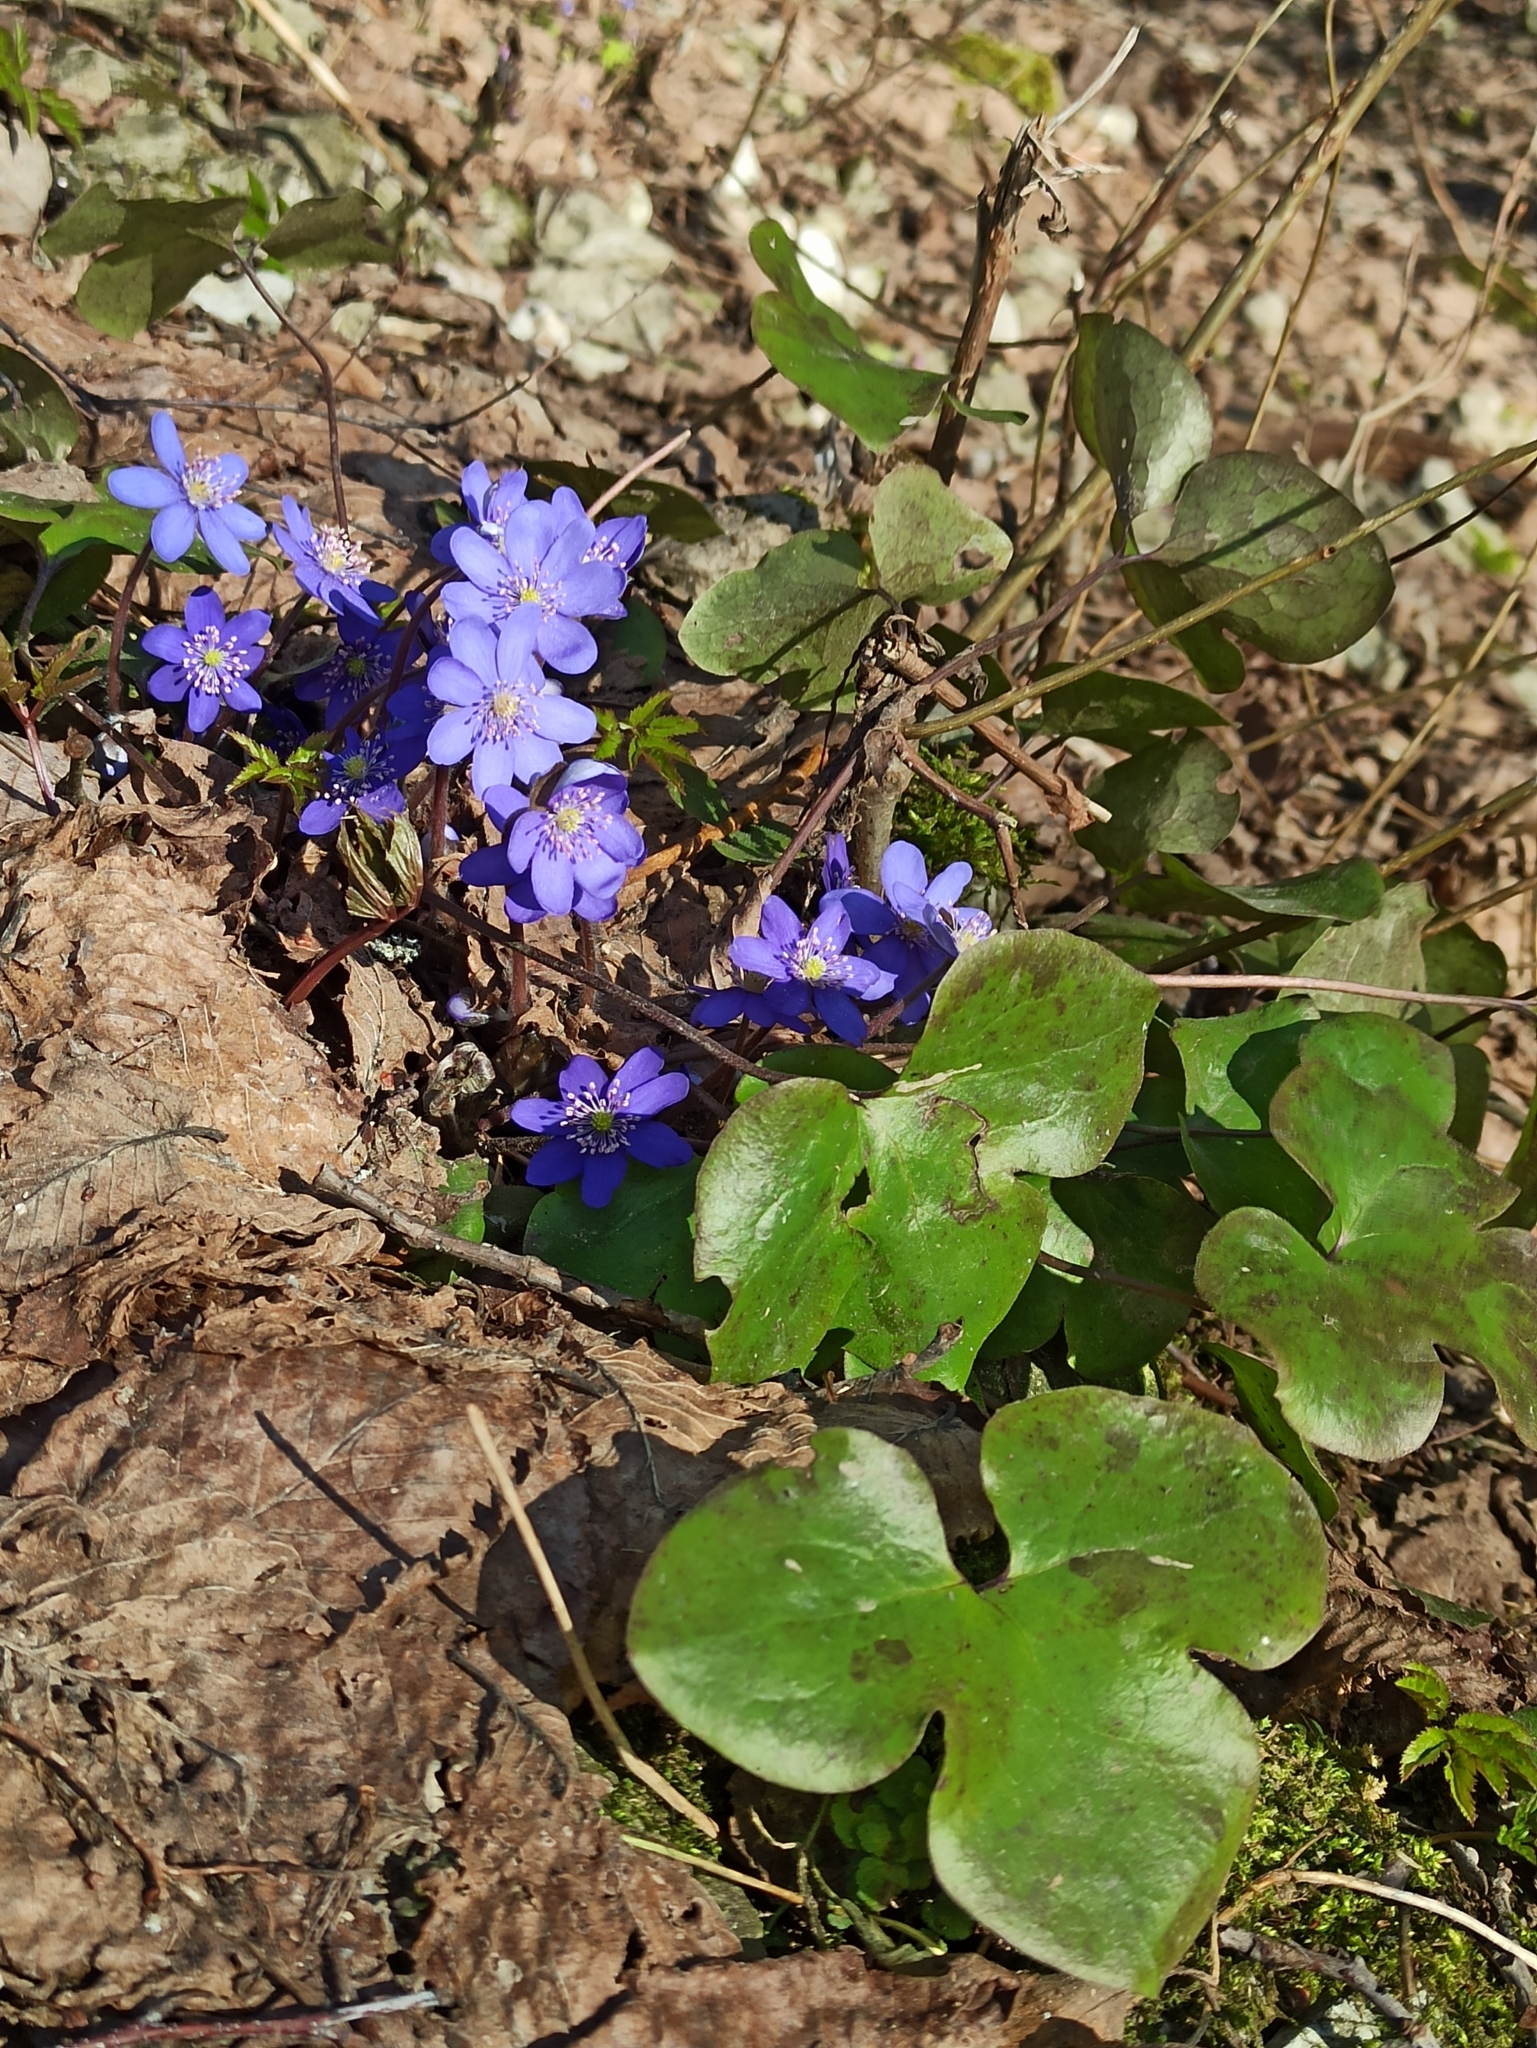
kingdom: Plantae
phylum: Tracheophyta
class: Magnoliopsida
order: Ranunculales
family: Ranunculaceae
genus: Hepatica
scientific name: Hepatica nobilis
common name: Liverleaf
